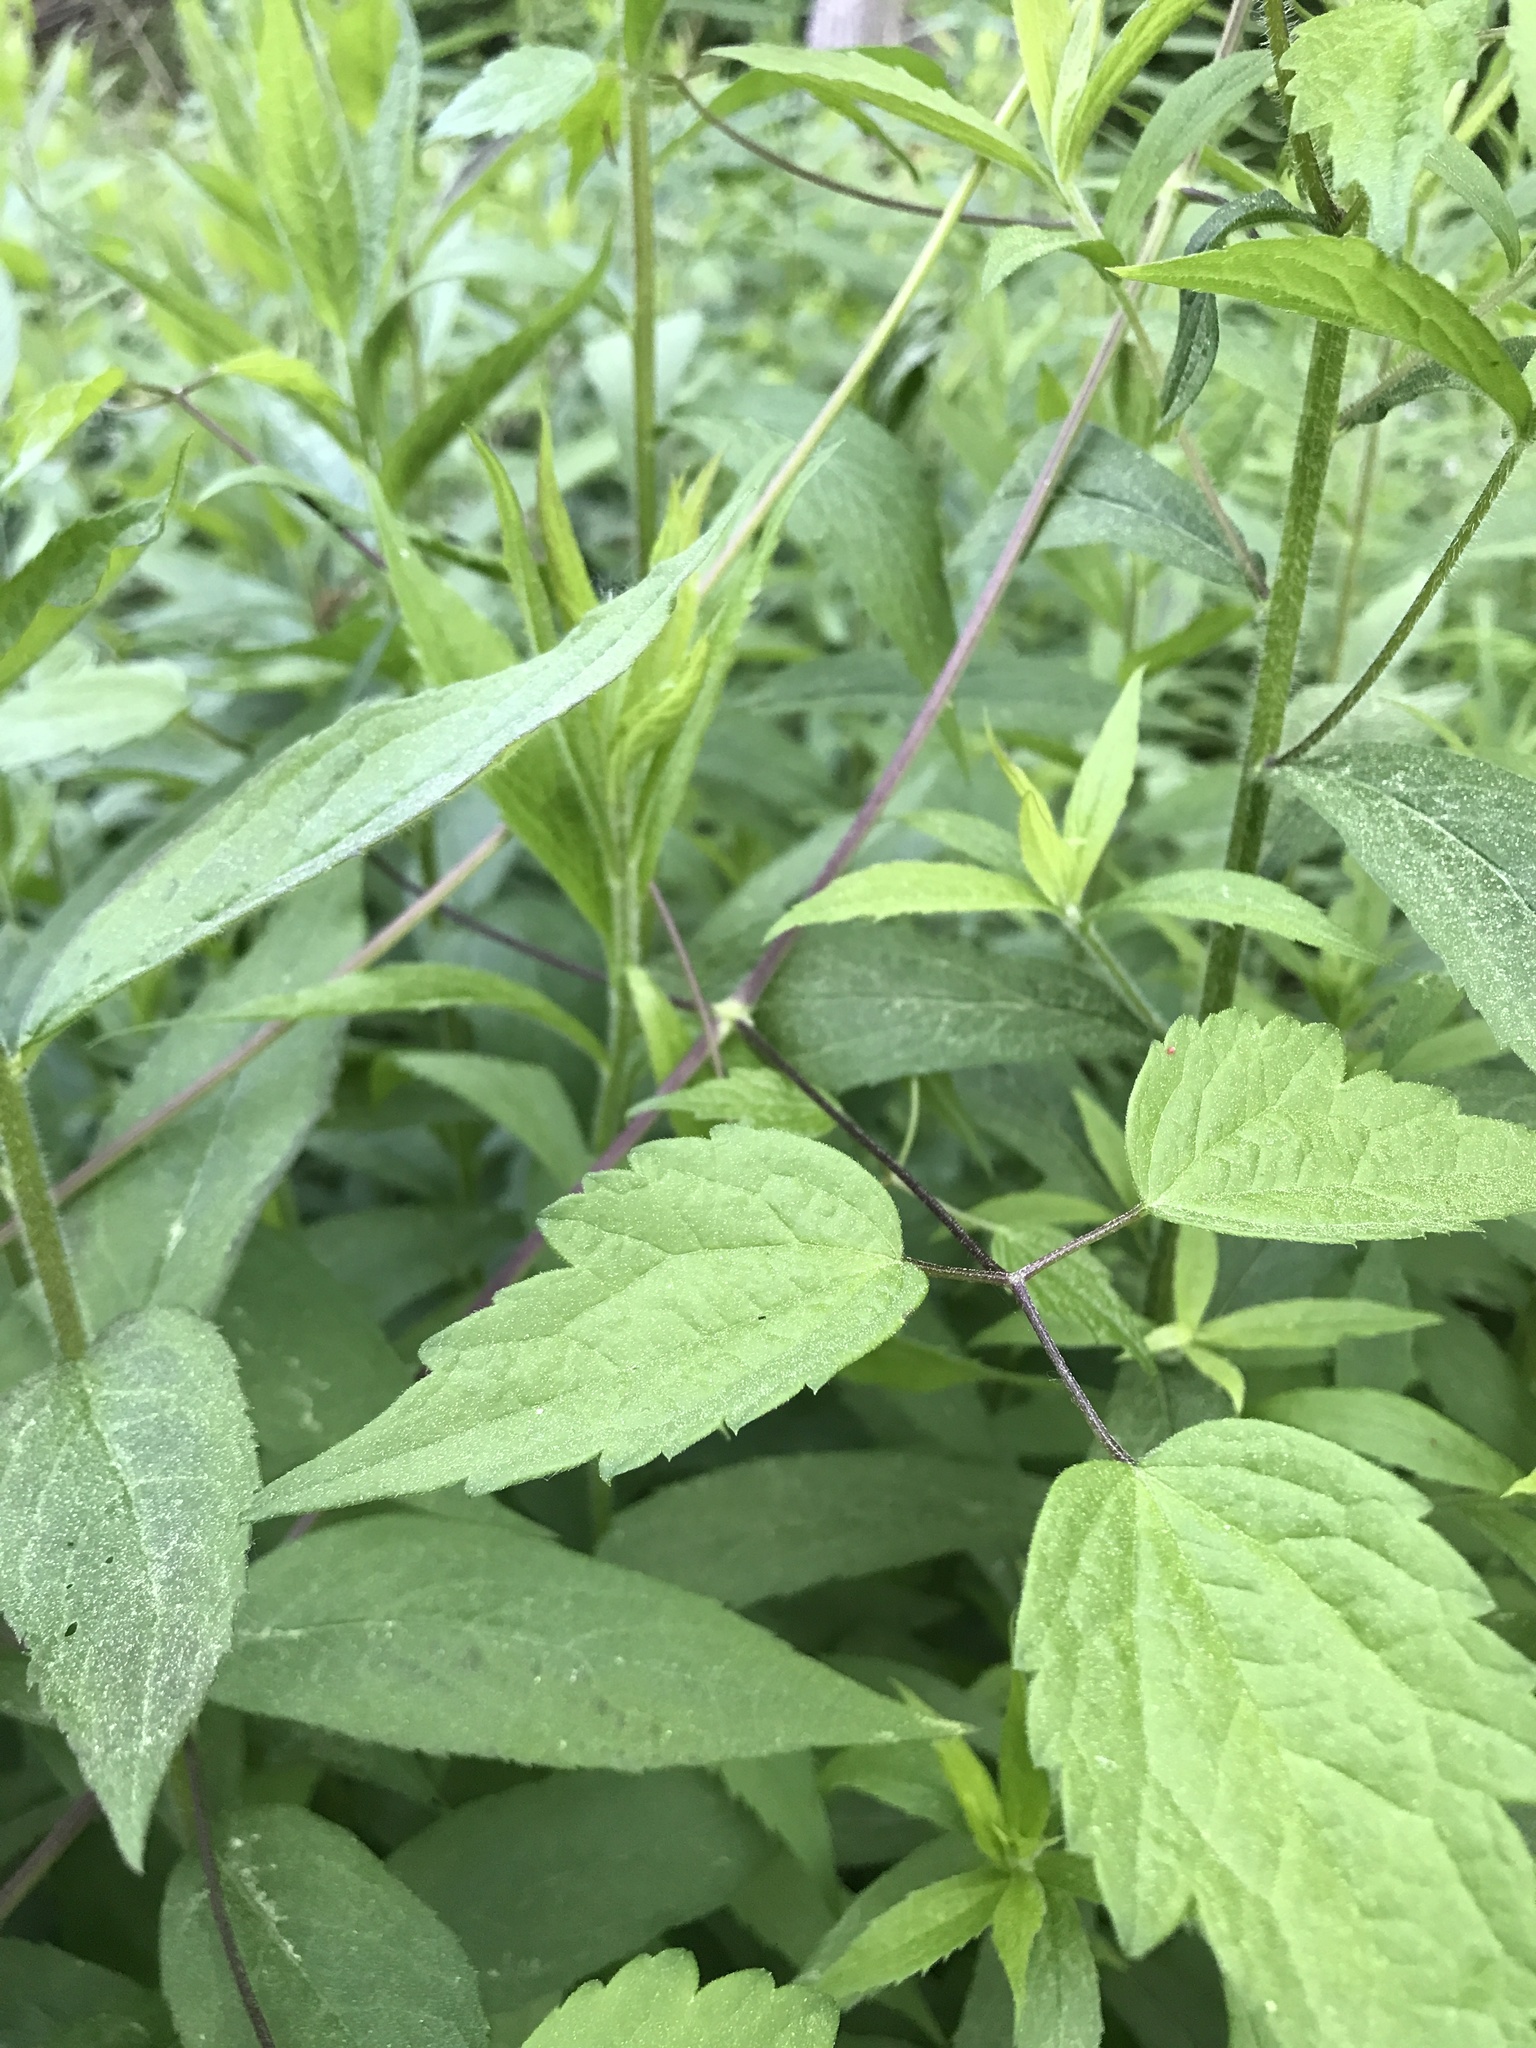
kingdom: Plantae
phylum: Tracheophyta
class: Magnoliopsida
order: Ranunculales
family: Ranunculaceae
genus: Clematis
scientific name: Clematis virginiana
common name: Virgin's-bower
